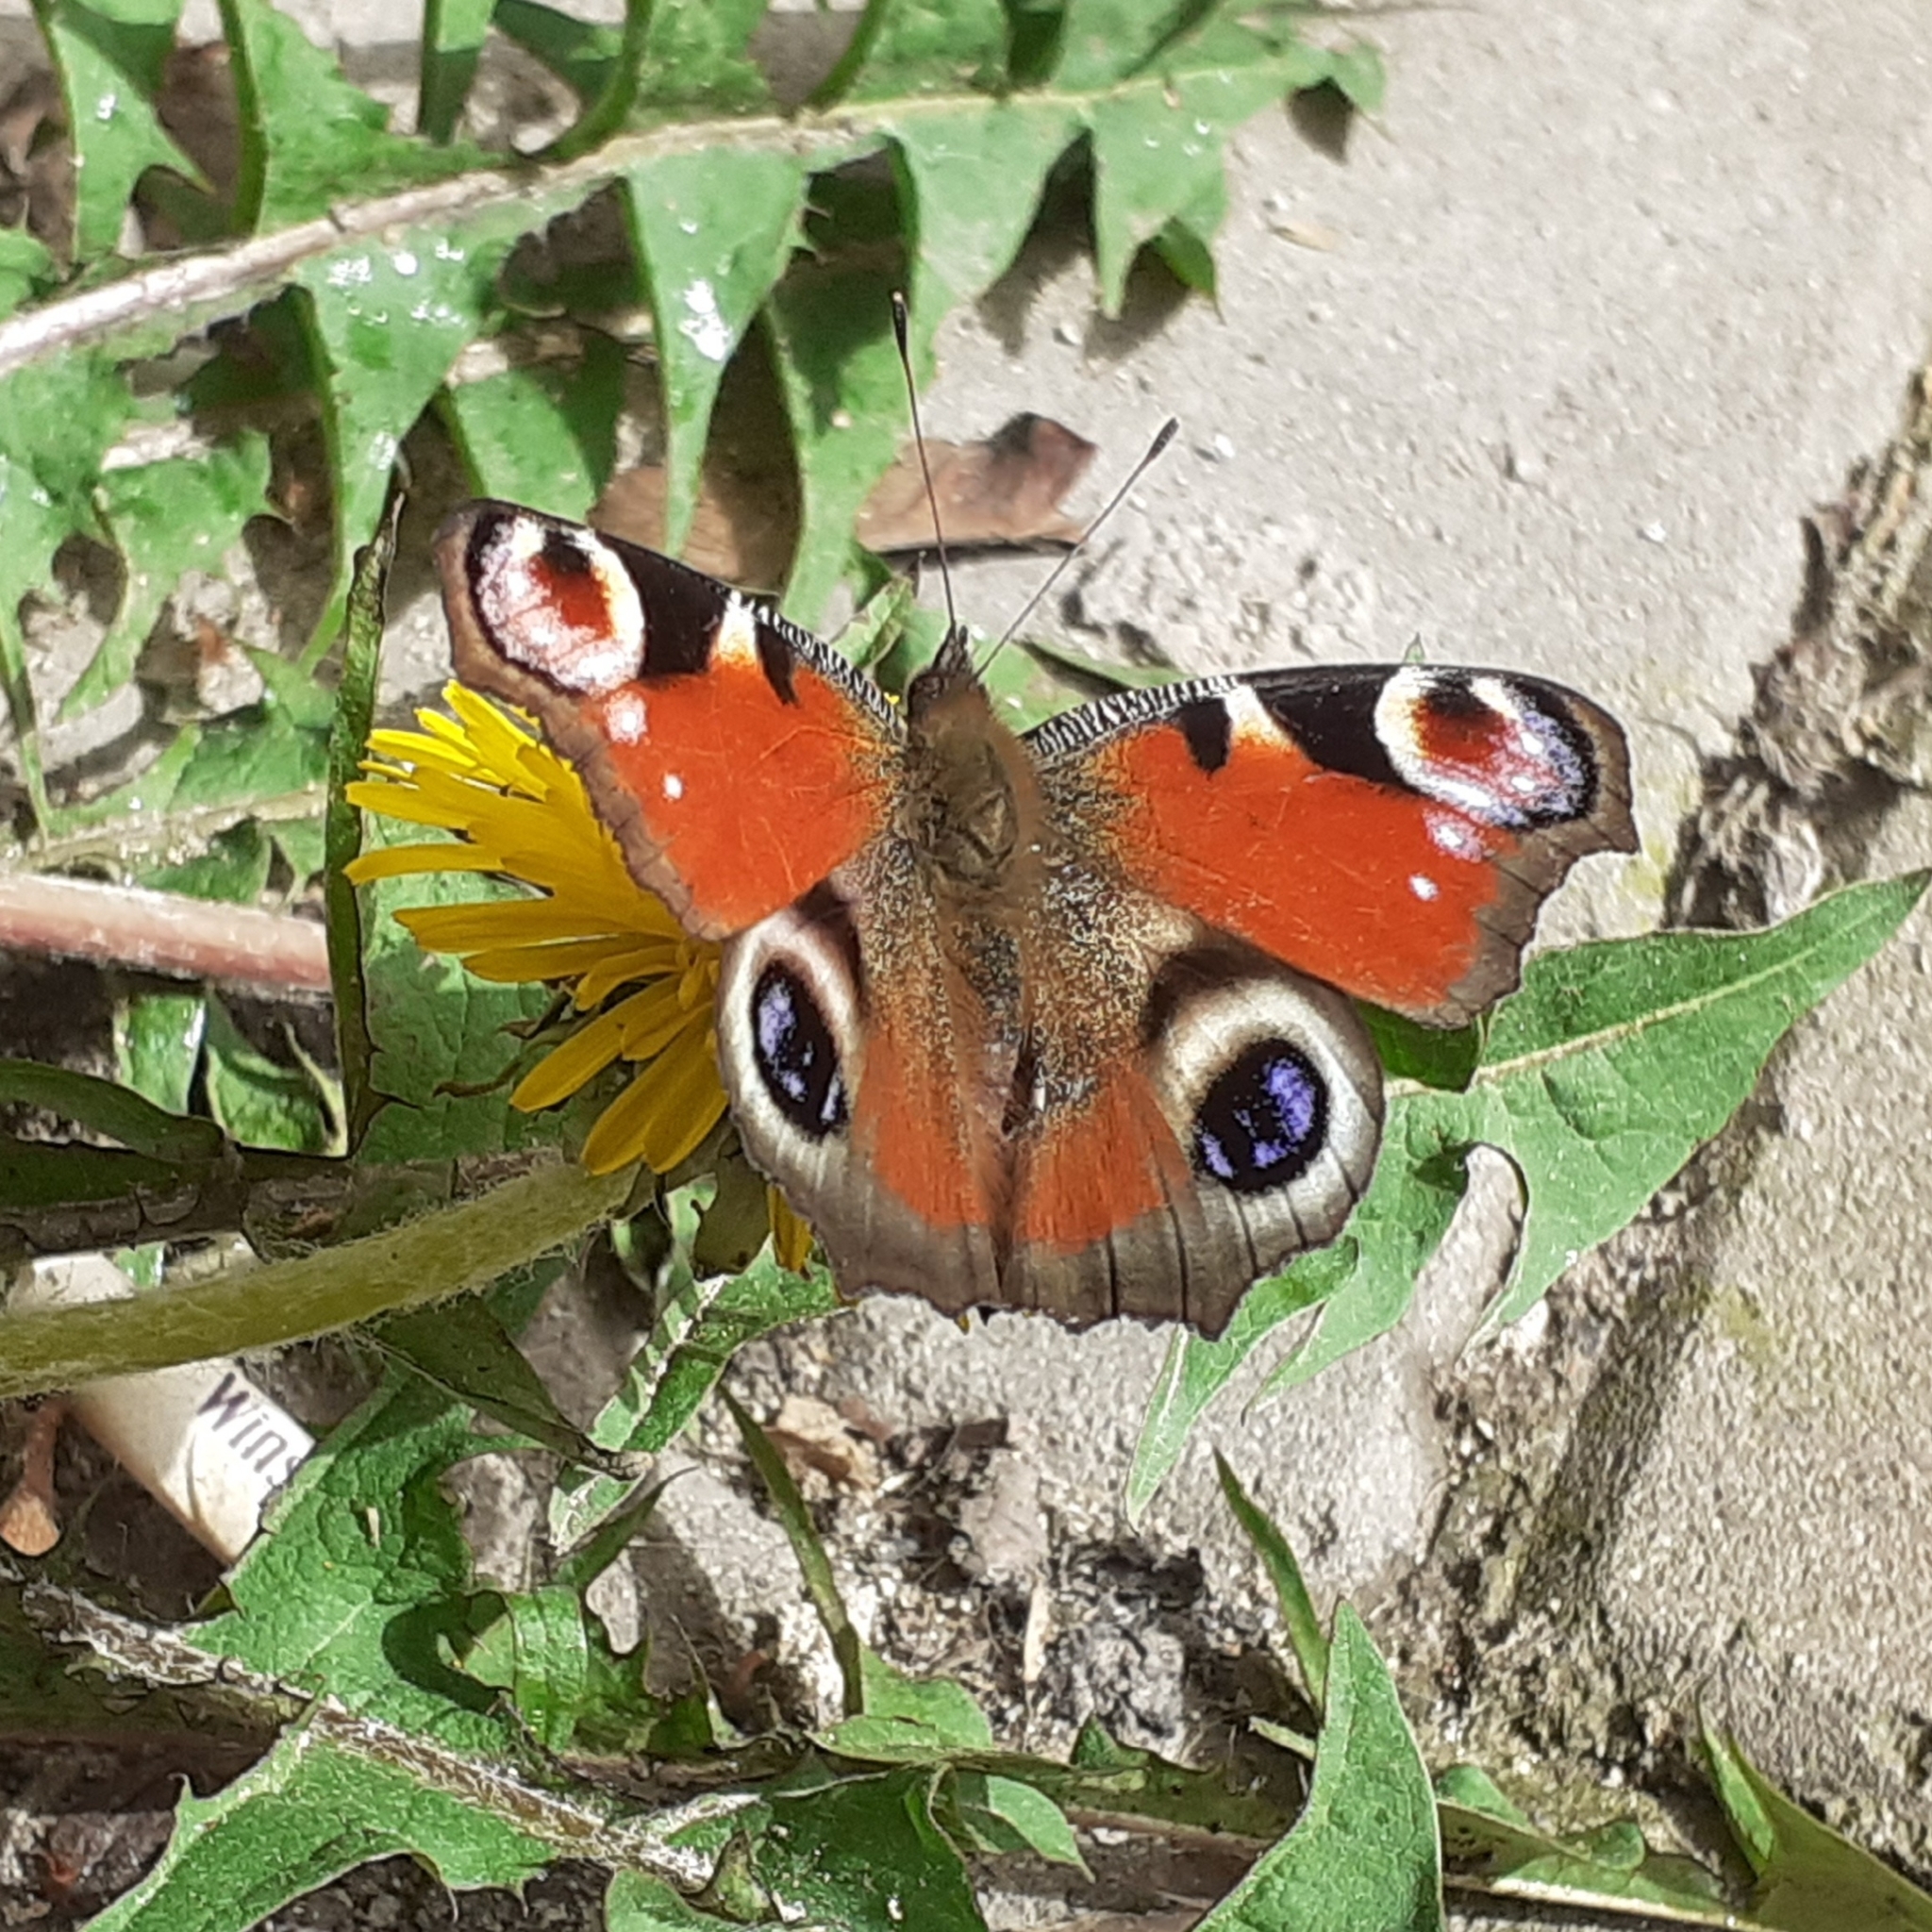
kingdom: Animalia
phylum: Arthropoda
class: Insecta
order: Lepidoptera
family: Nymphalidae
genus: Aglais
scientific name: Aglais io
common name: Peacock
